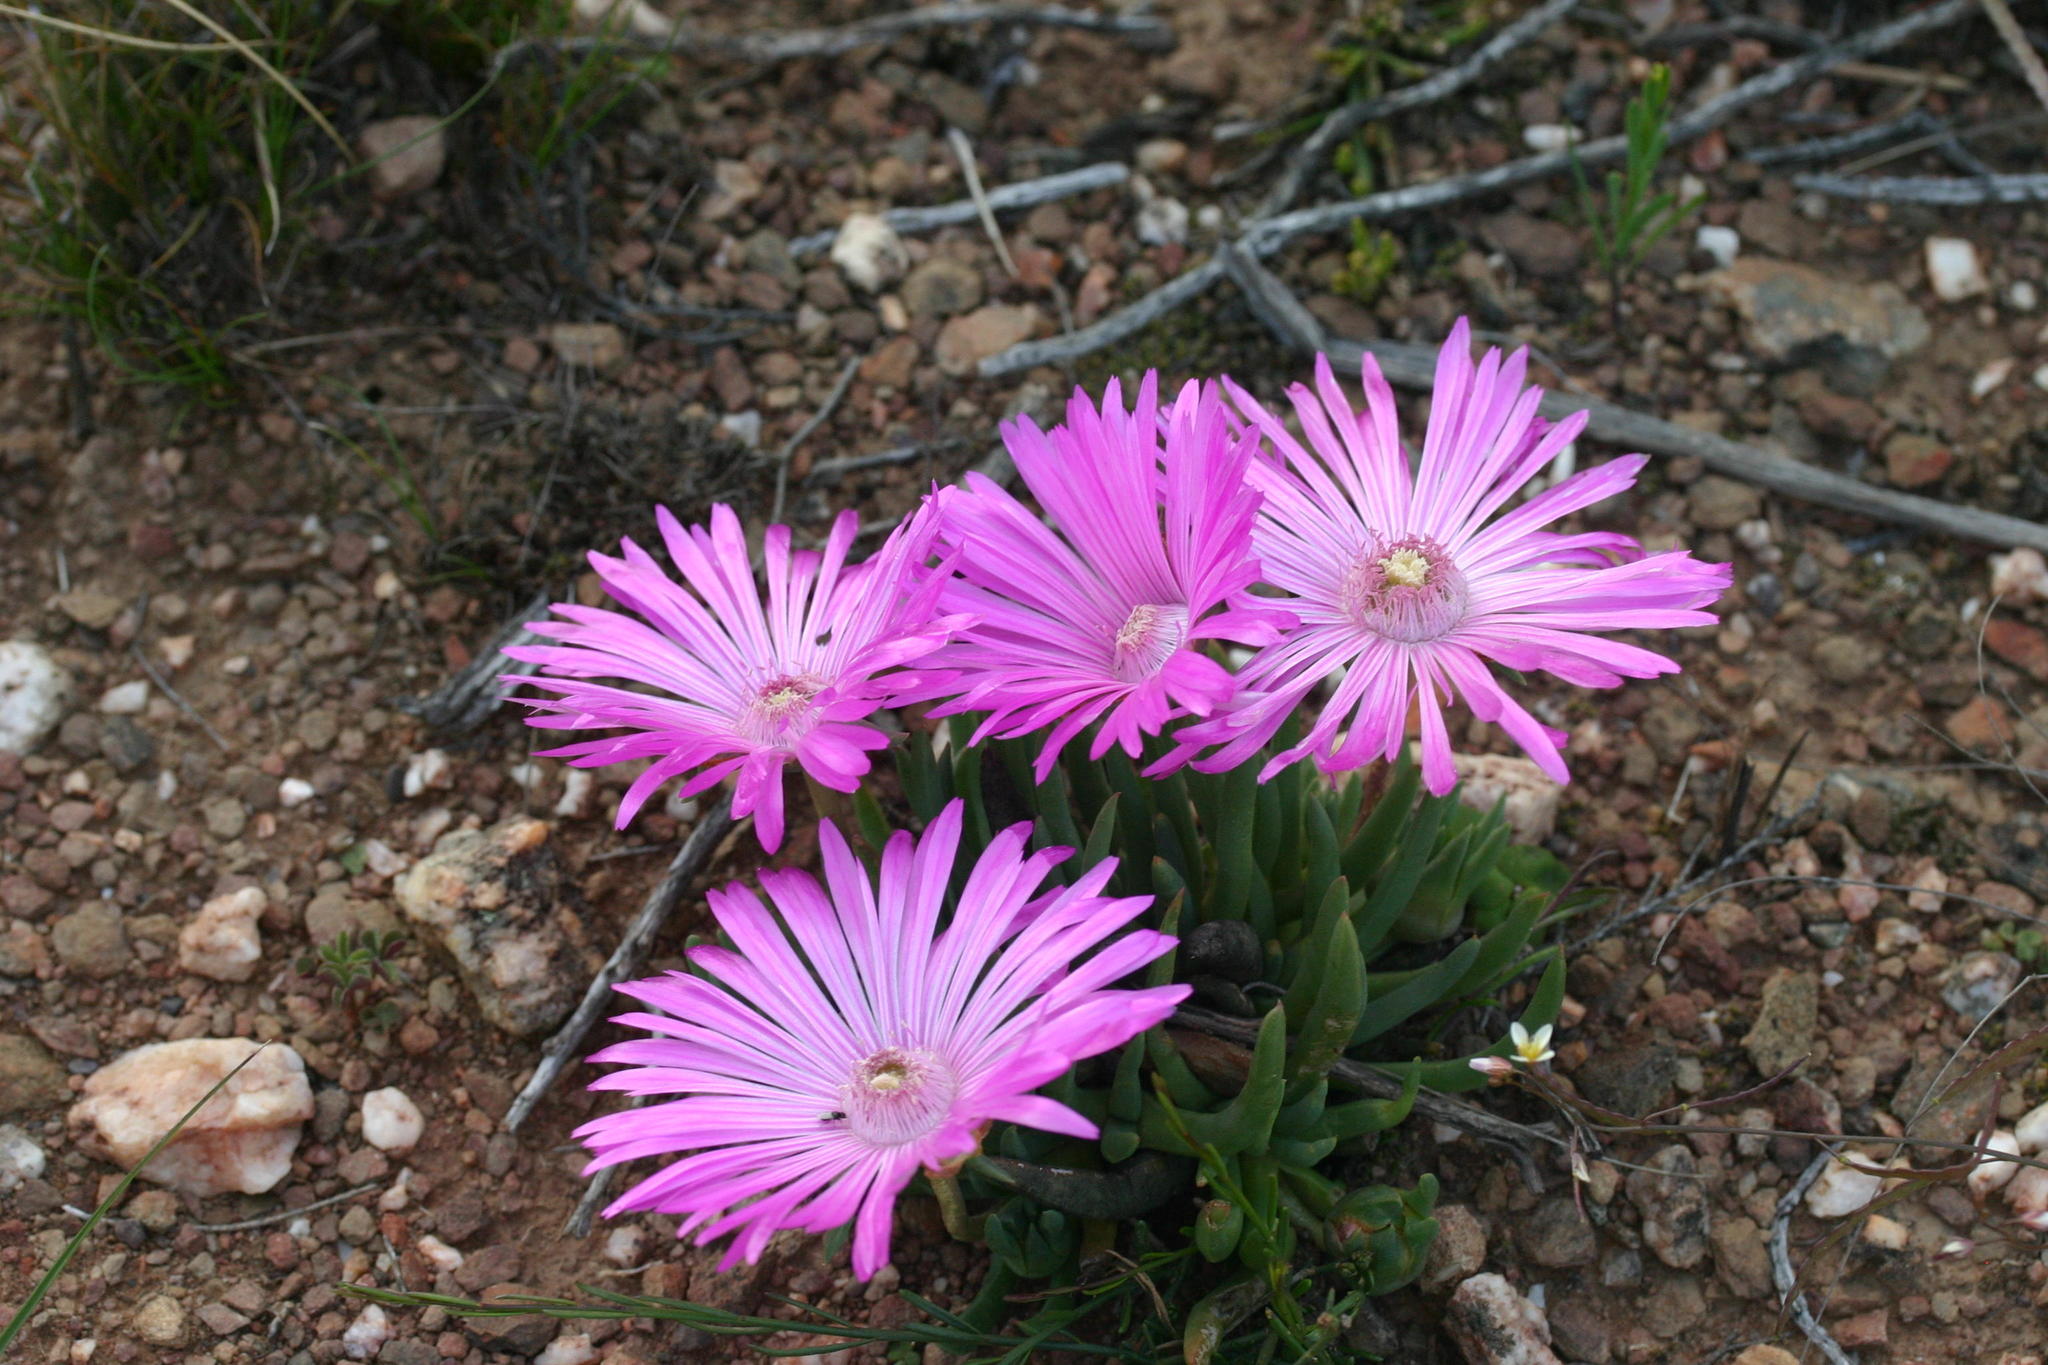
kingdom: Plantae
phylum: Tracheophyta
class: Magnoliopsida
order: Caryophyllales
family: Aizoaceae
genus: Acrodon
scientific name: Acrodon bellidiflorus
